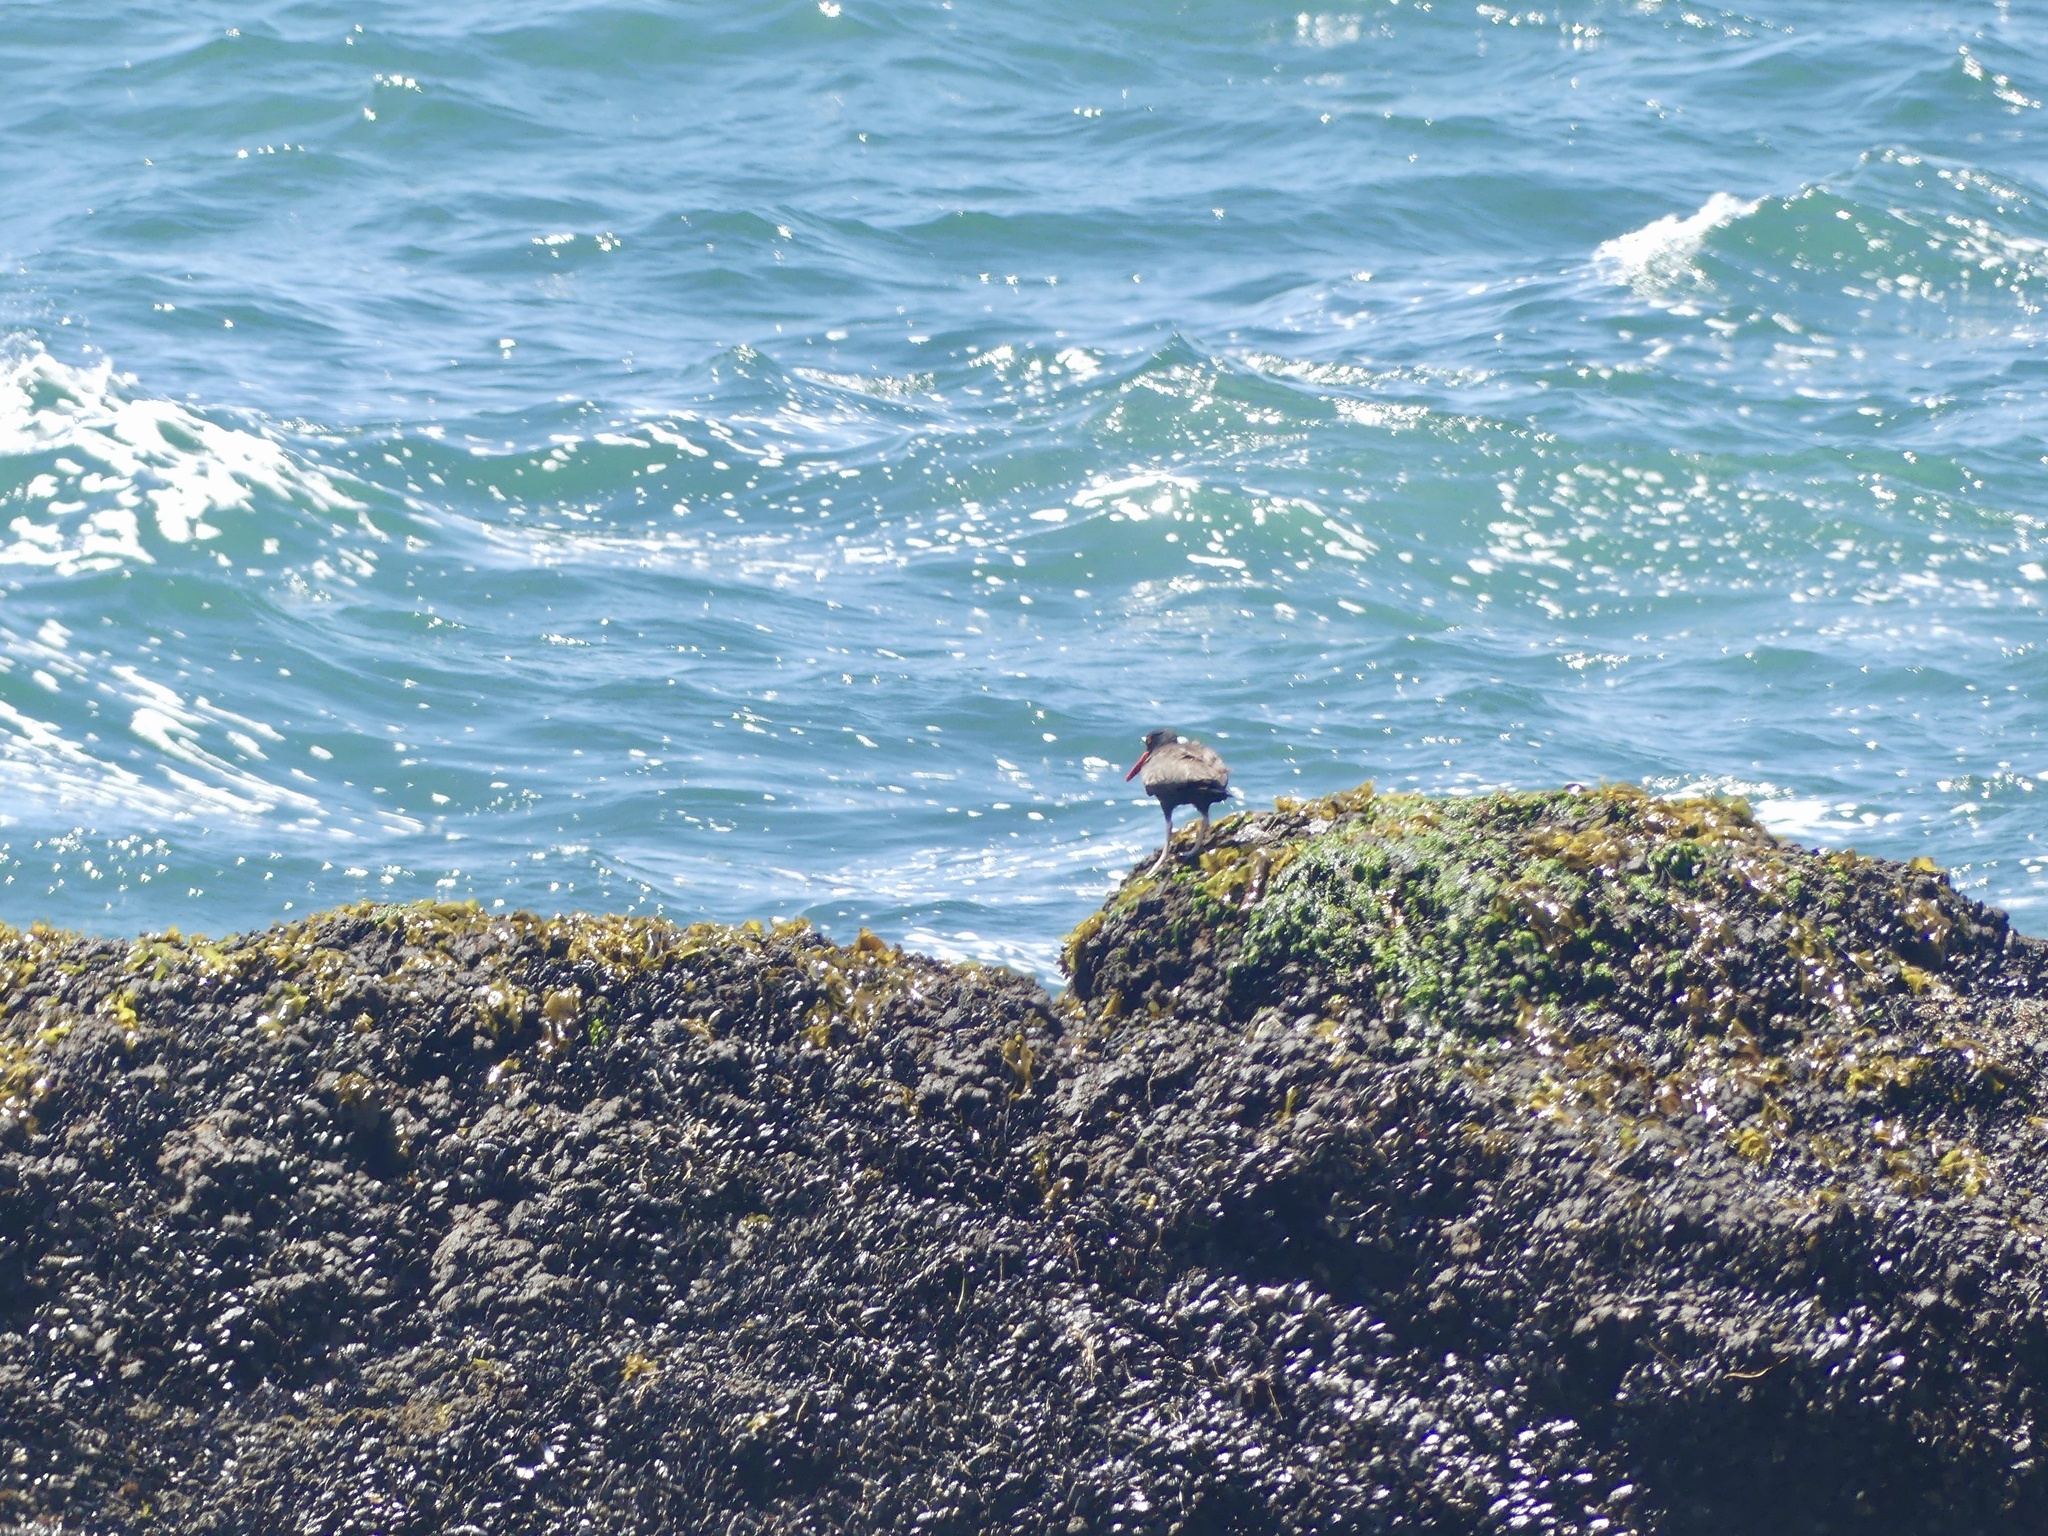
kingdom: Animalia
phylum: Chordata
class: Aves
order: Charadriiformes
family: Haematopodidae
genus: Haematopus
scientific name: Haematopus bachmani
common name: Black oystercatcher
